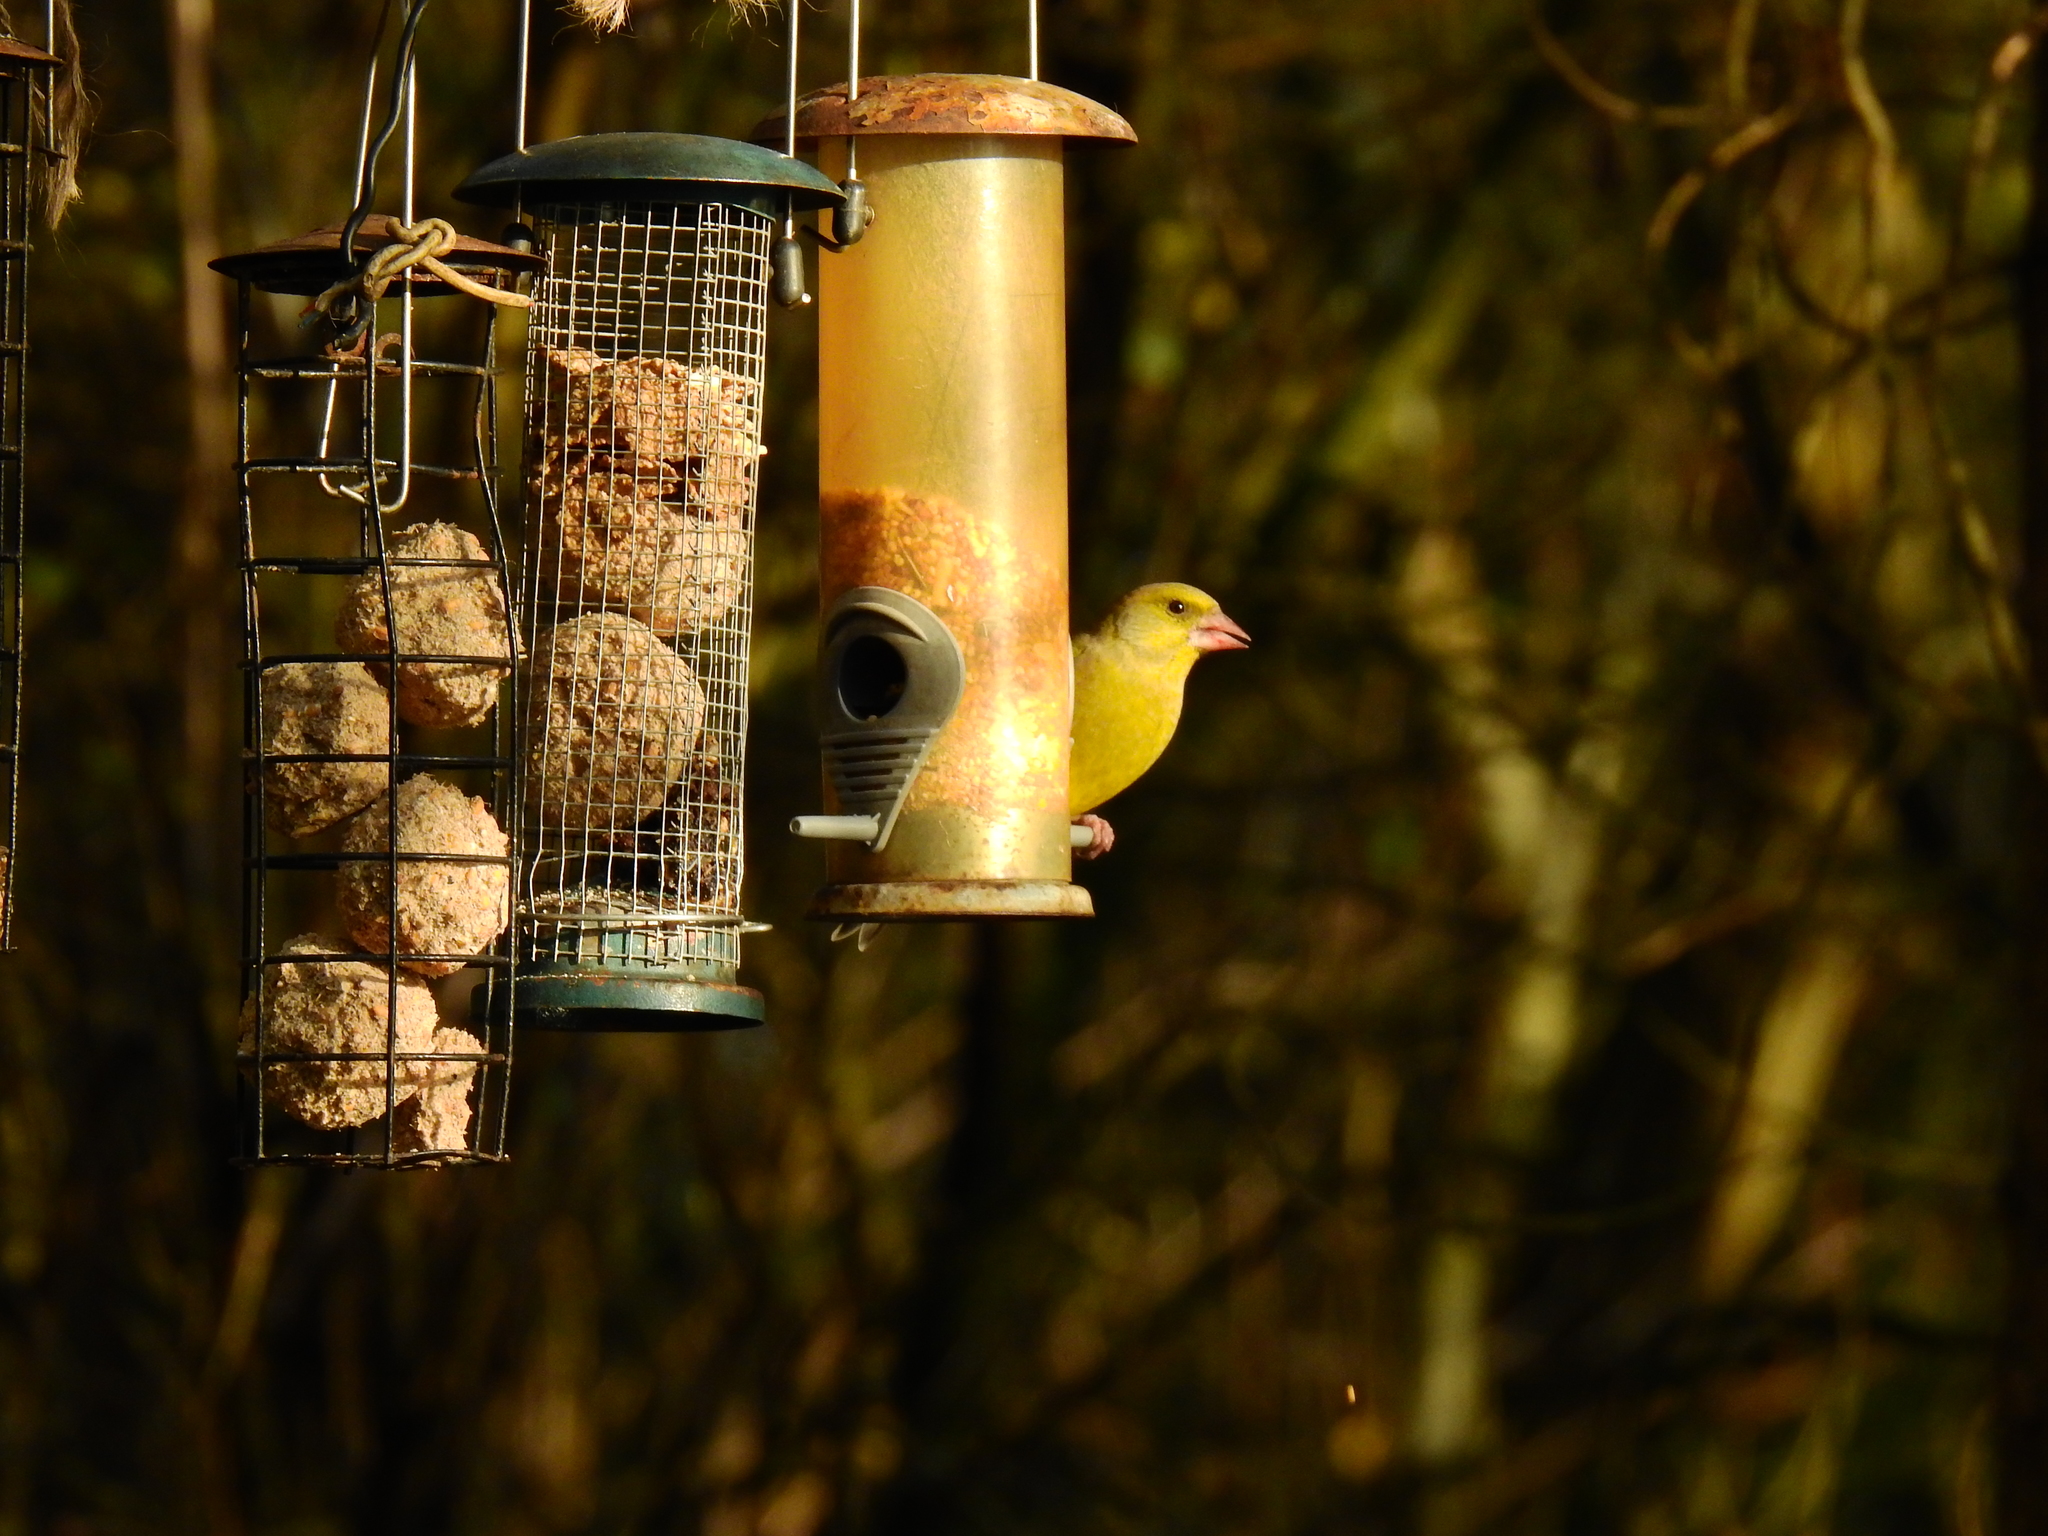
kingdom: Plantae
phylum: Tracheophyta
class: Liliopsida
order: Poales
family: Poaceae
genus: Chloris
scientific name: Chloris chloris
